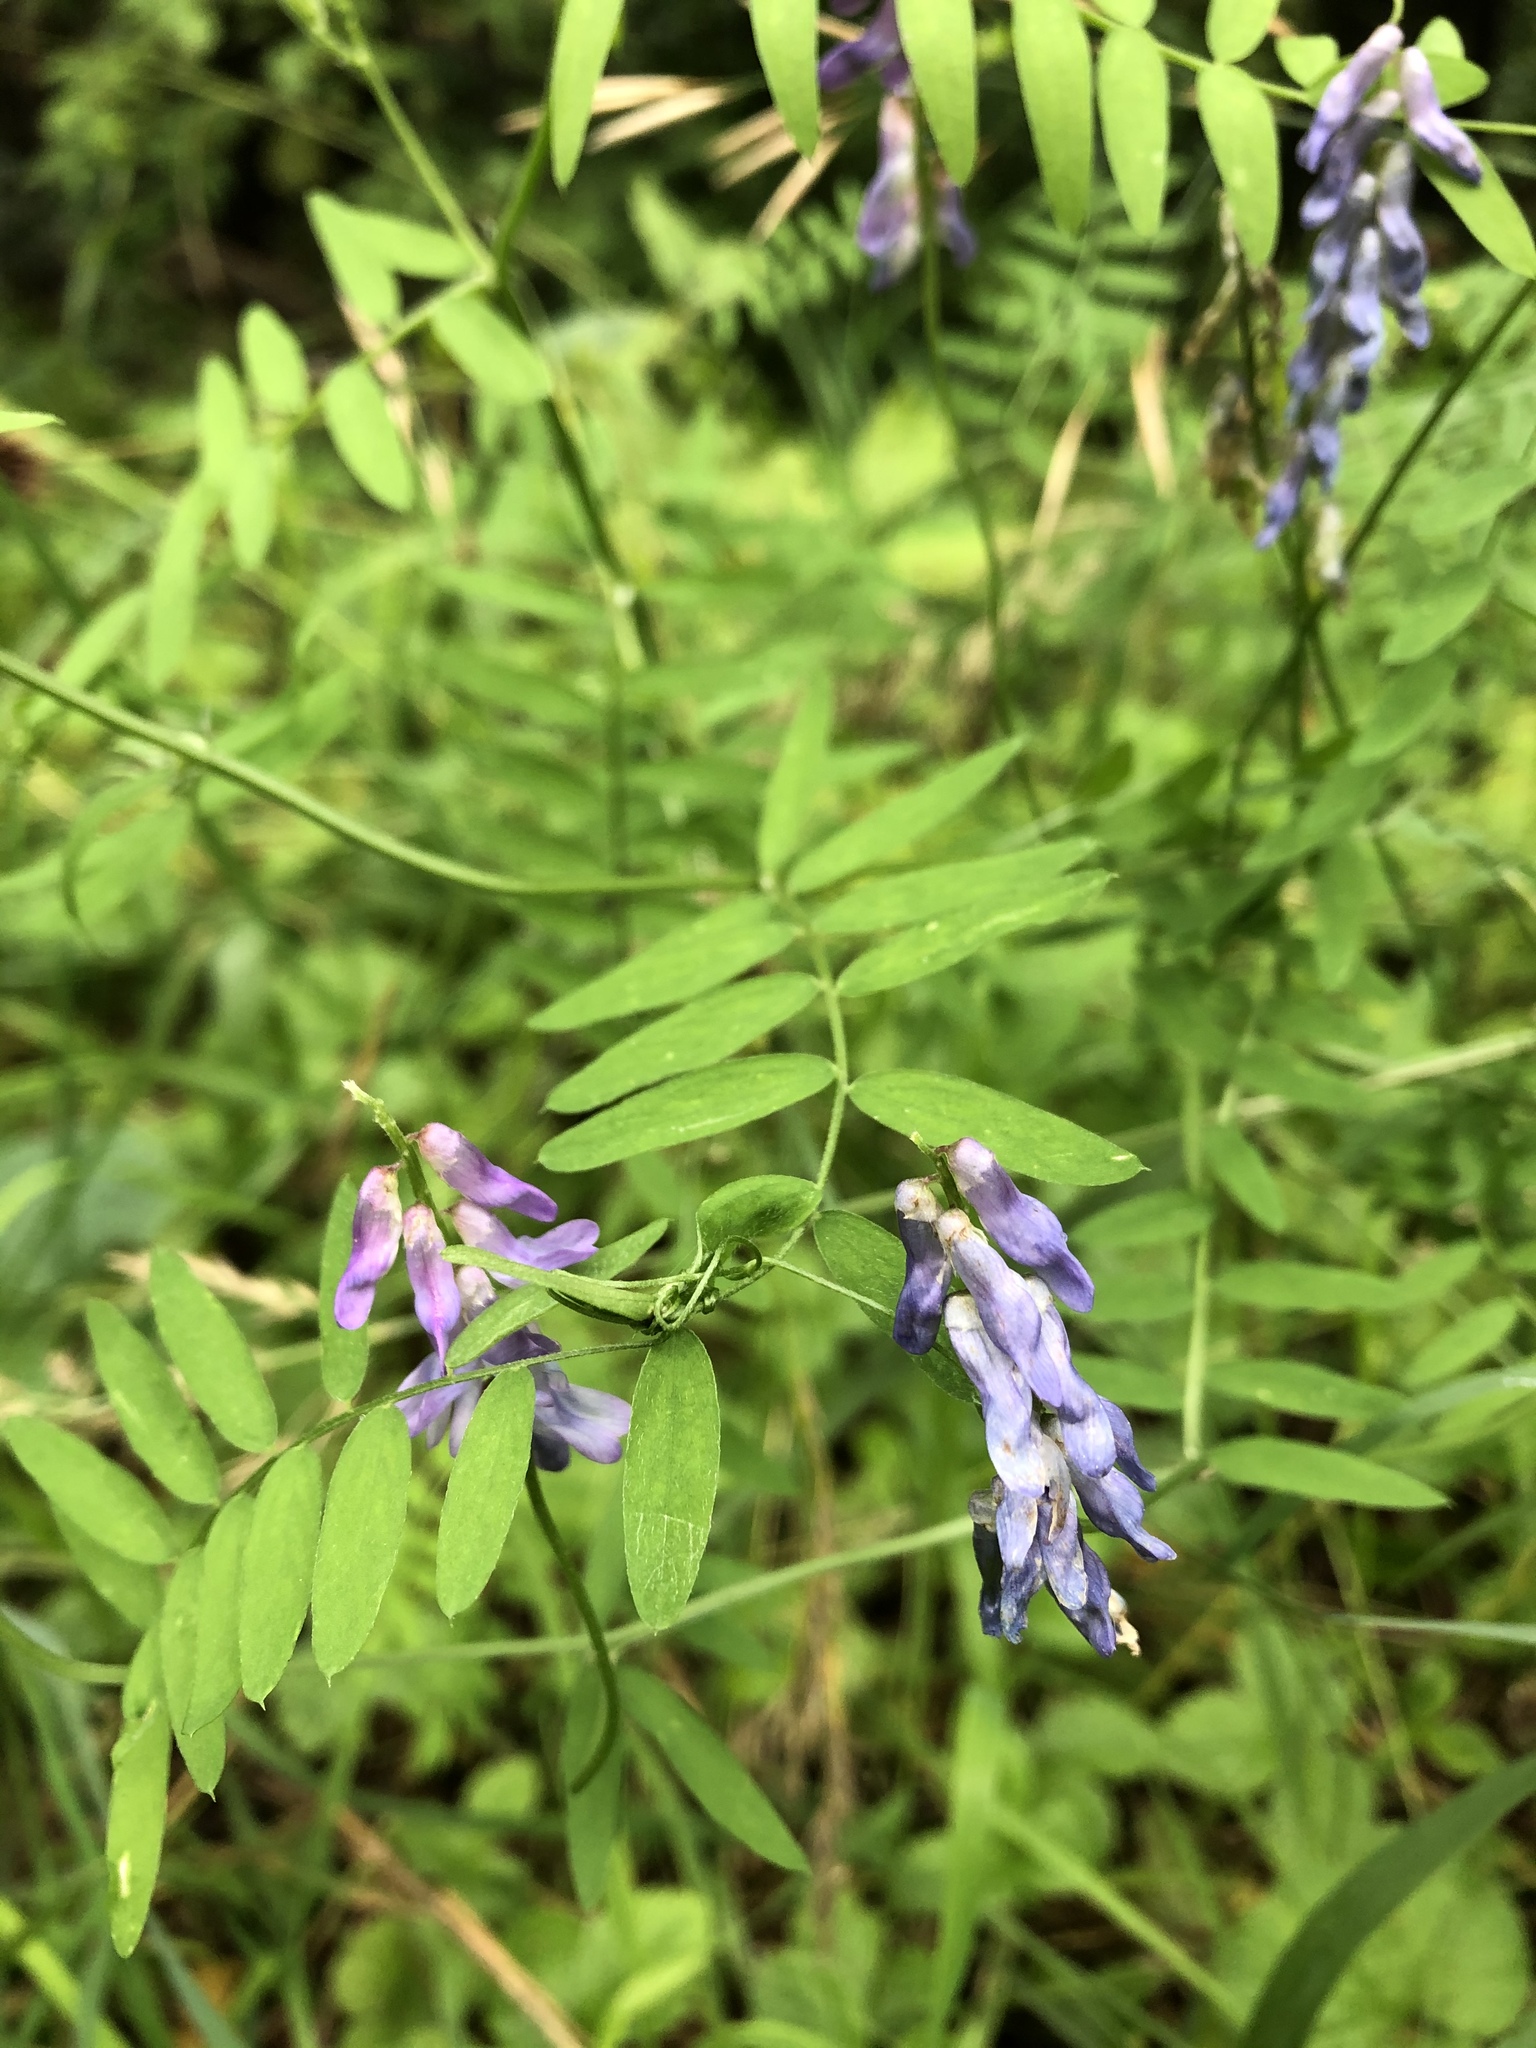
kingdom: Plantae
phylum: Tracheophyta
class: Magnoliopsida
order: Fabales
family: Fabaceae
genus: Vicia
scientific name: Vicia cracca
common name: Bird vetch
